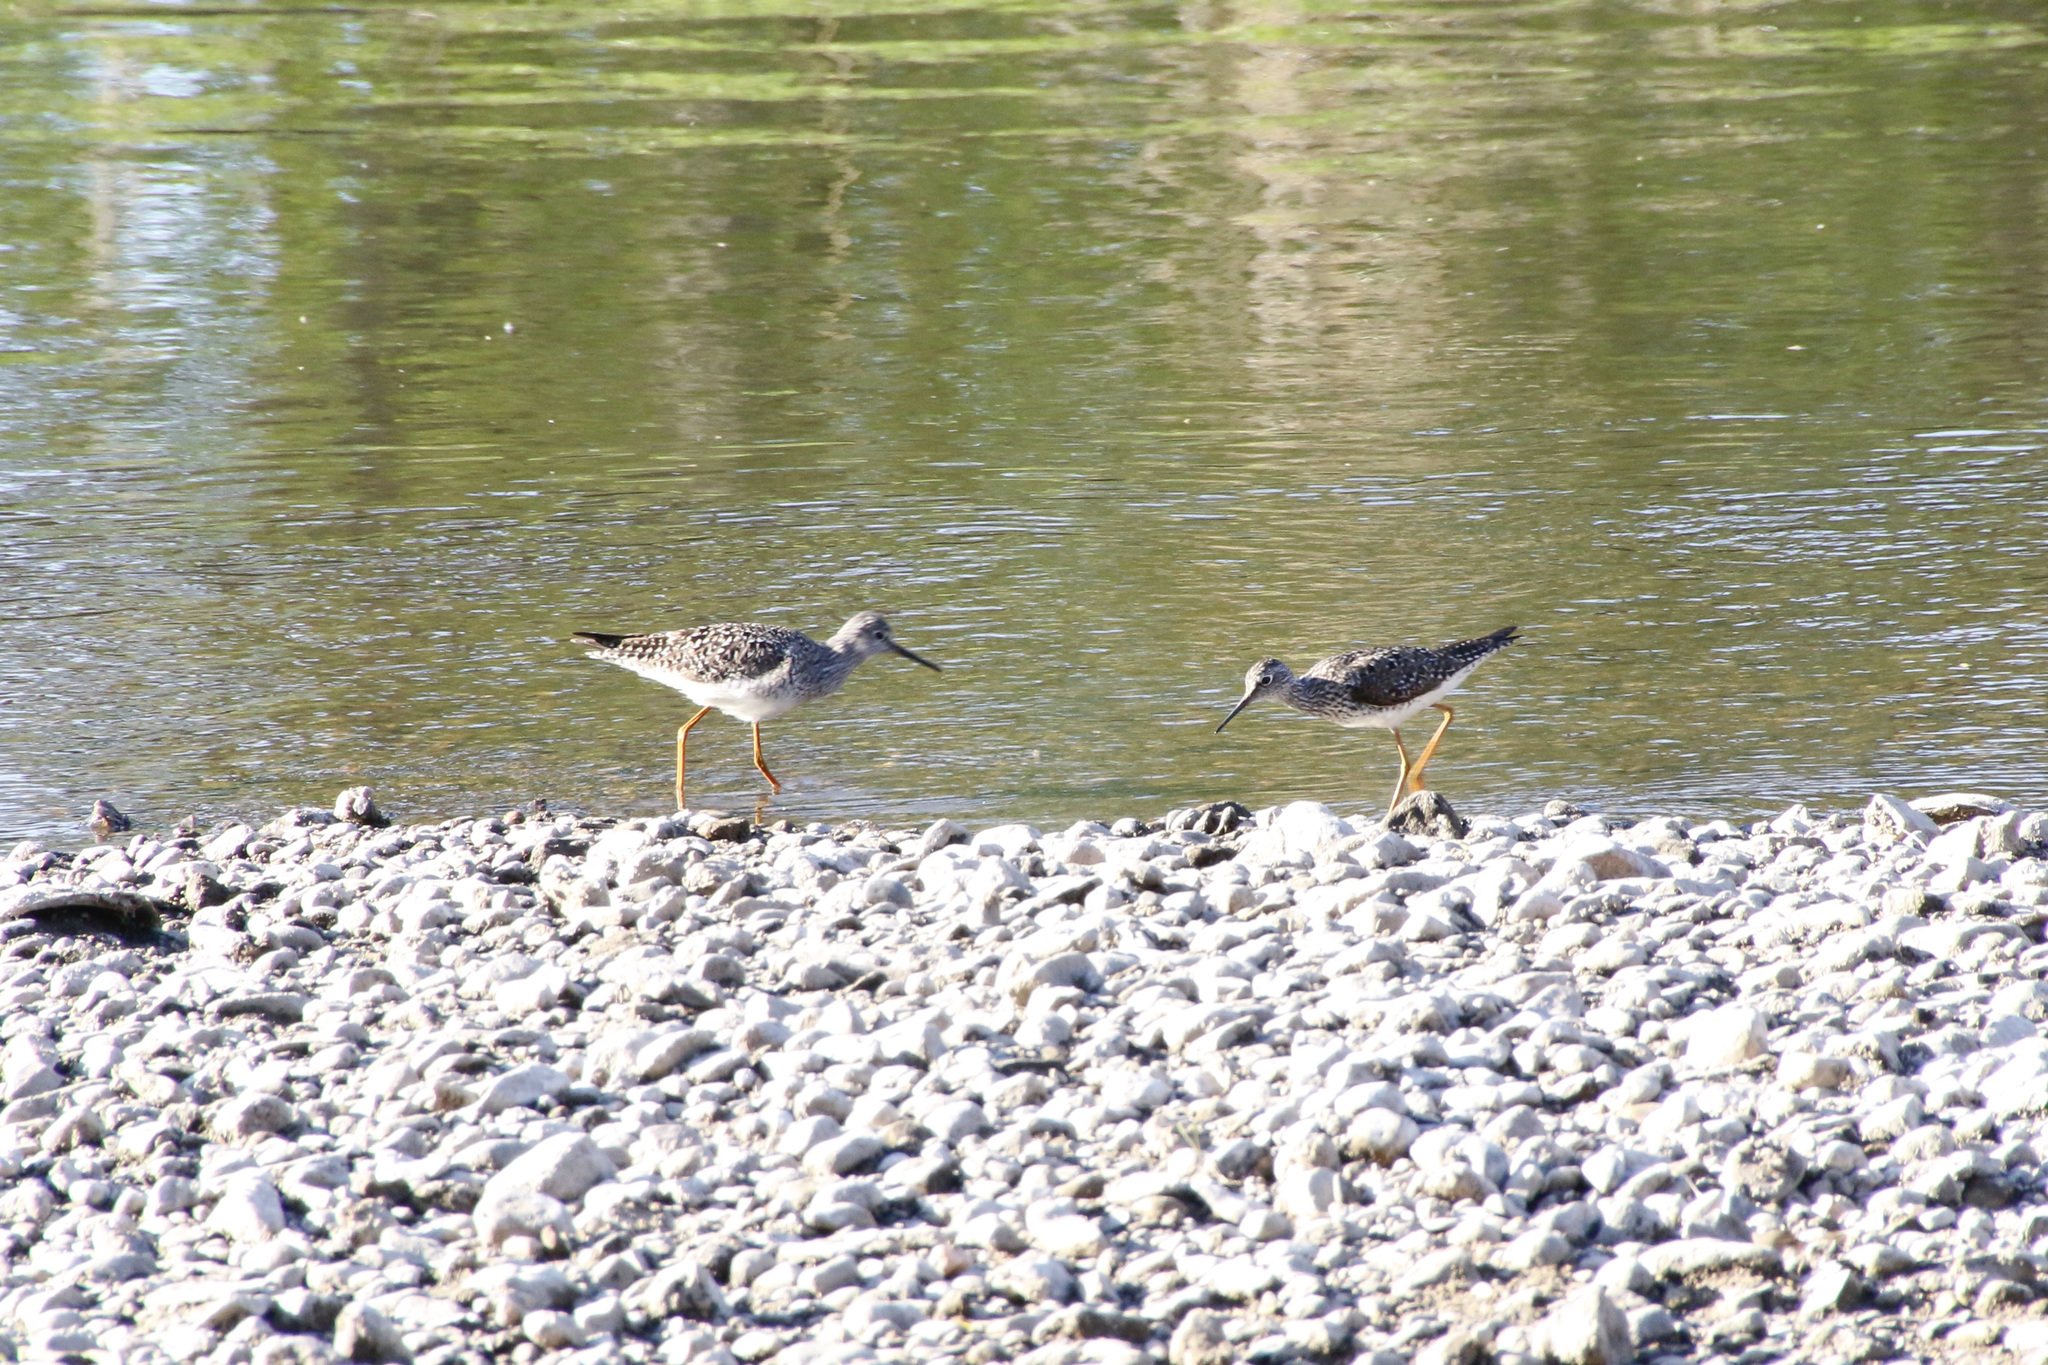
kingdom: Animalia
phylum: Chordata
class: Aves
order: Charadriiformes
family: Scolopacidae
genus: Tringa
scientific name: Tringa flavipes
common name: Lesser yellowlegs
